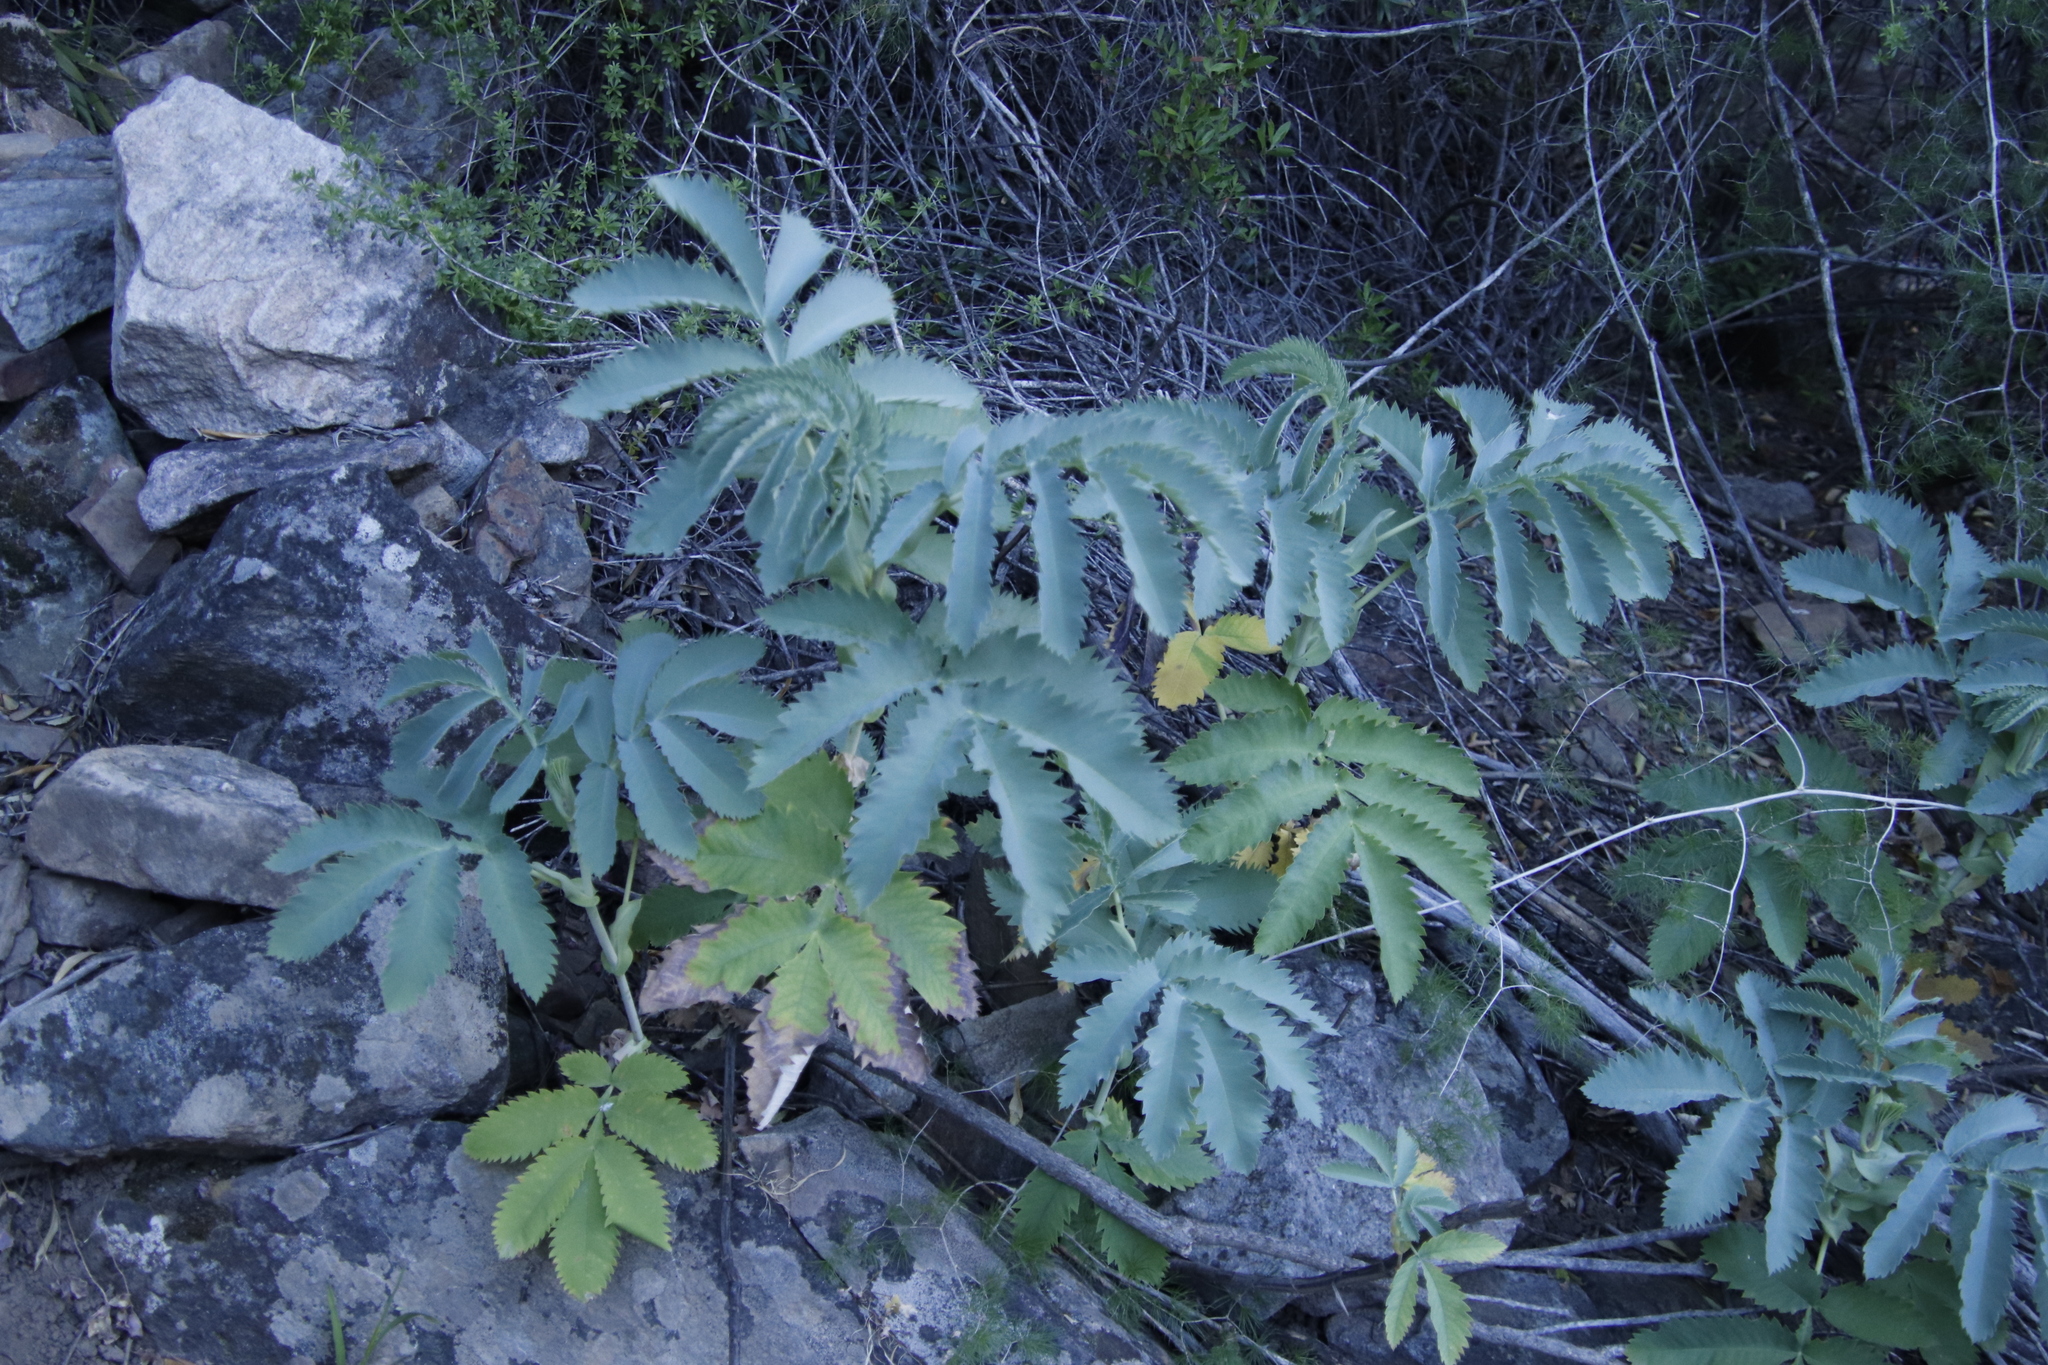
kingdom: Plantae
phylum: Tracheophyta
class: Magnoliopsida
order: Geraniales
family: Melianthaceae
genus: Melianthus
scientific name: Melianthus major
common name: Honey-flower
